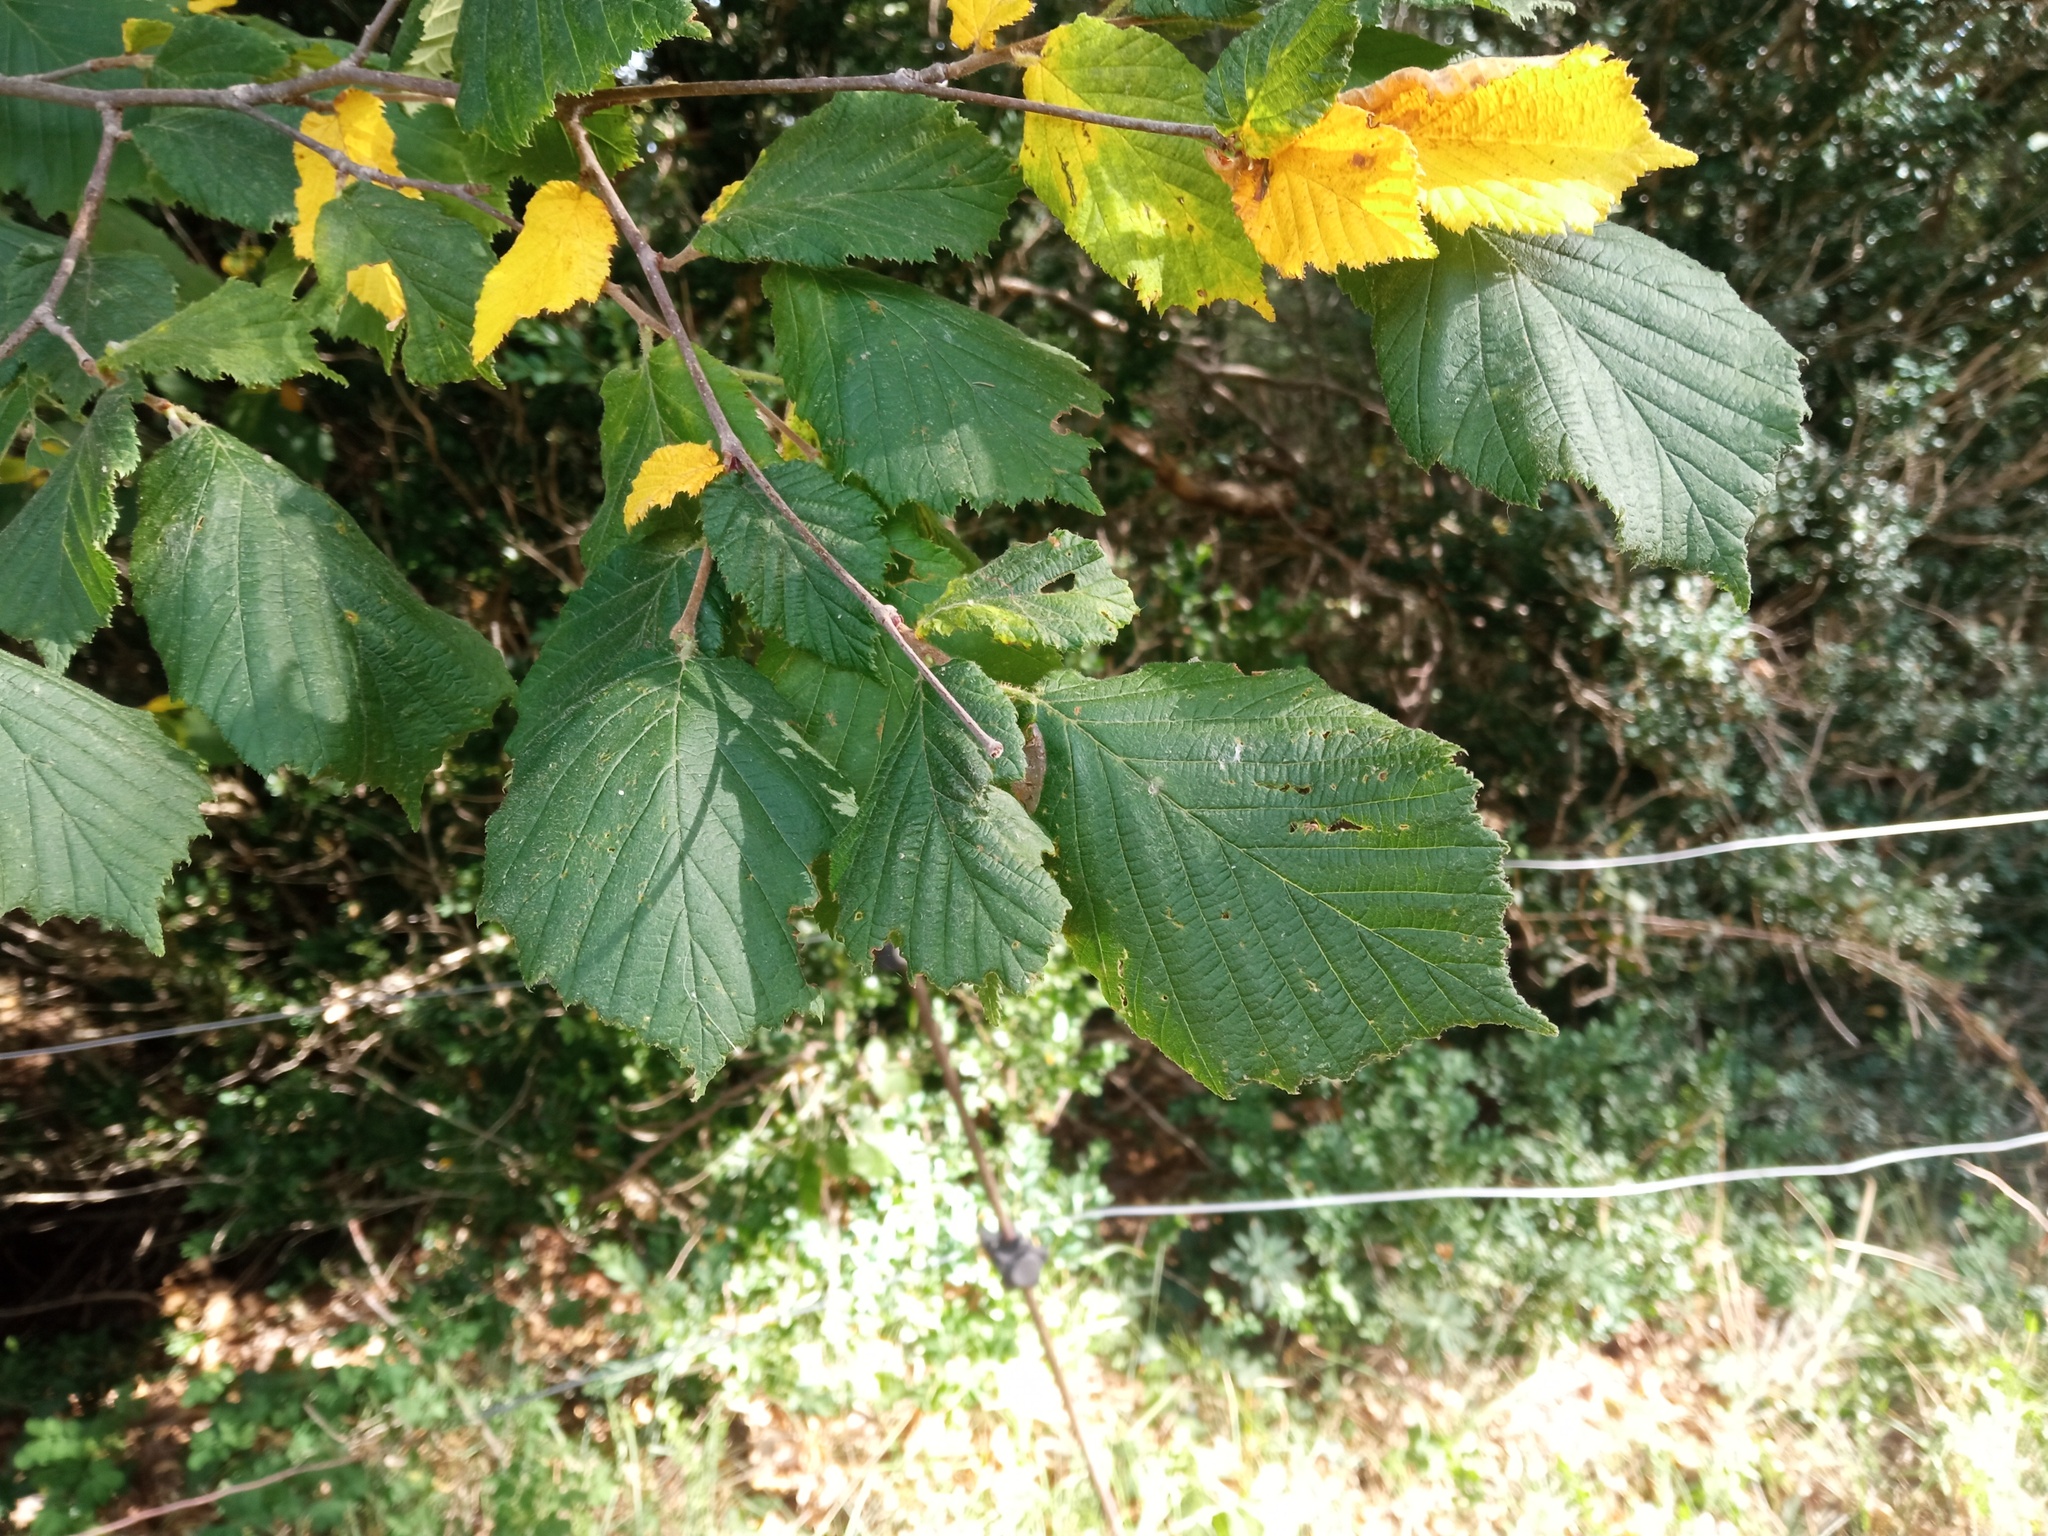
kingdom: Plantae
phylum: Tracheophyta
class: Magnoliopsida
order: Fagales
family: Betulaceae
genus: Corylus
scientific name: Corylus avellana
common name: European hazel
